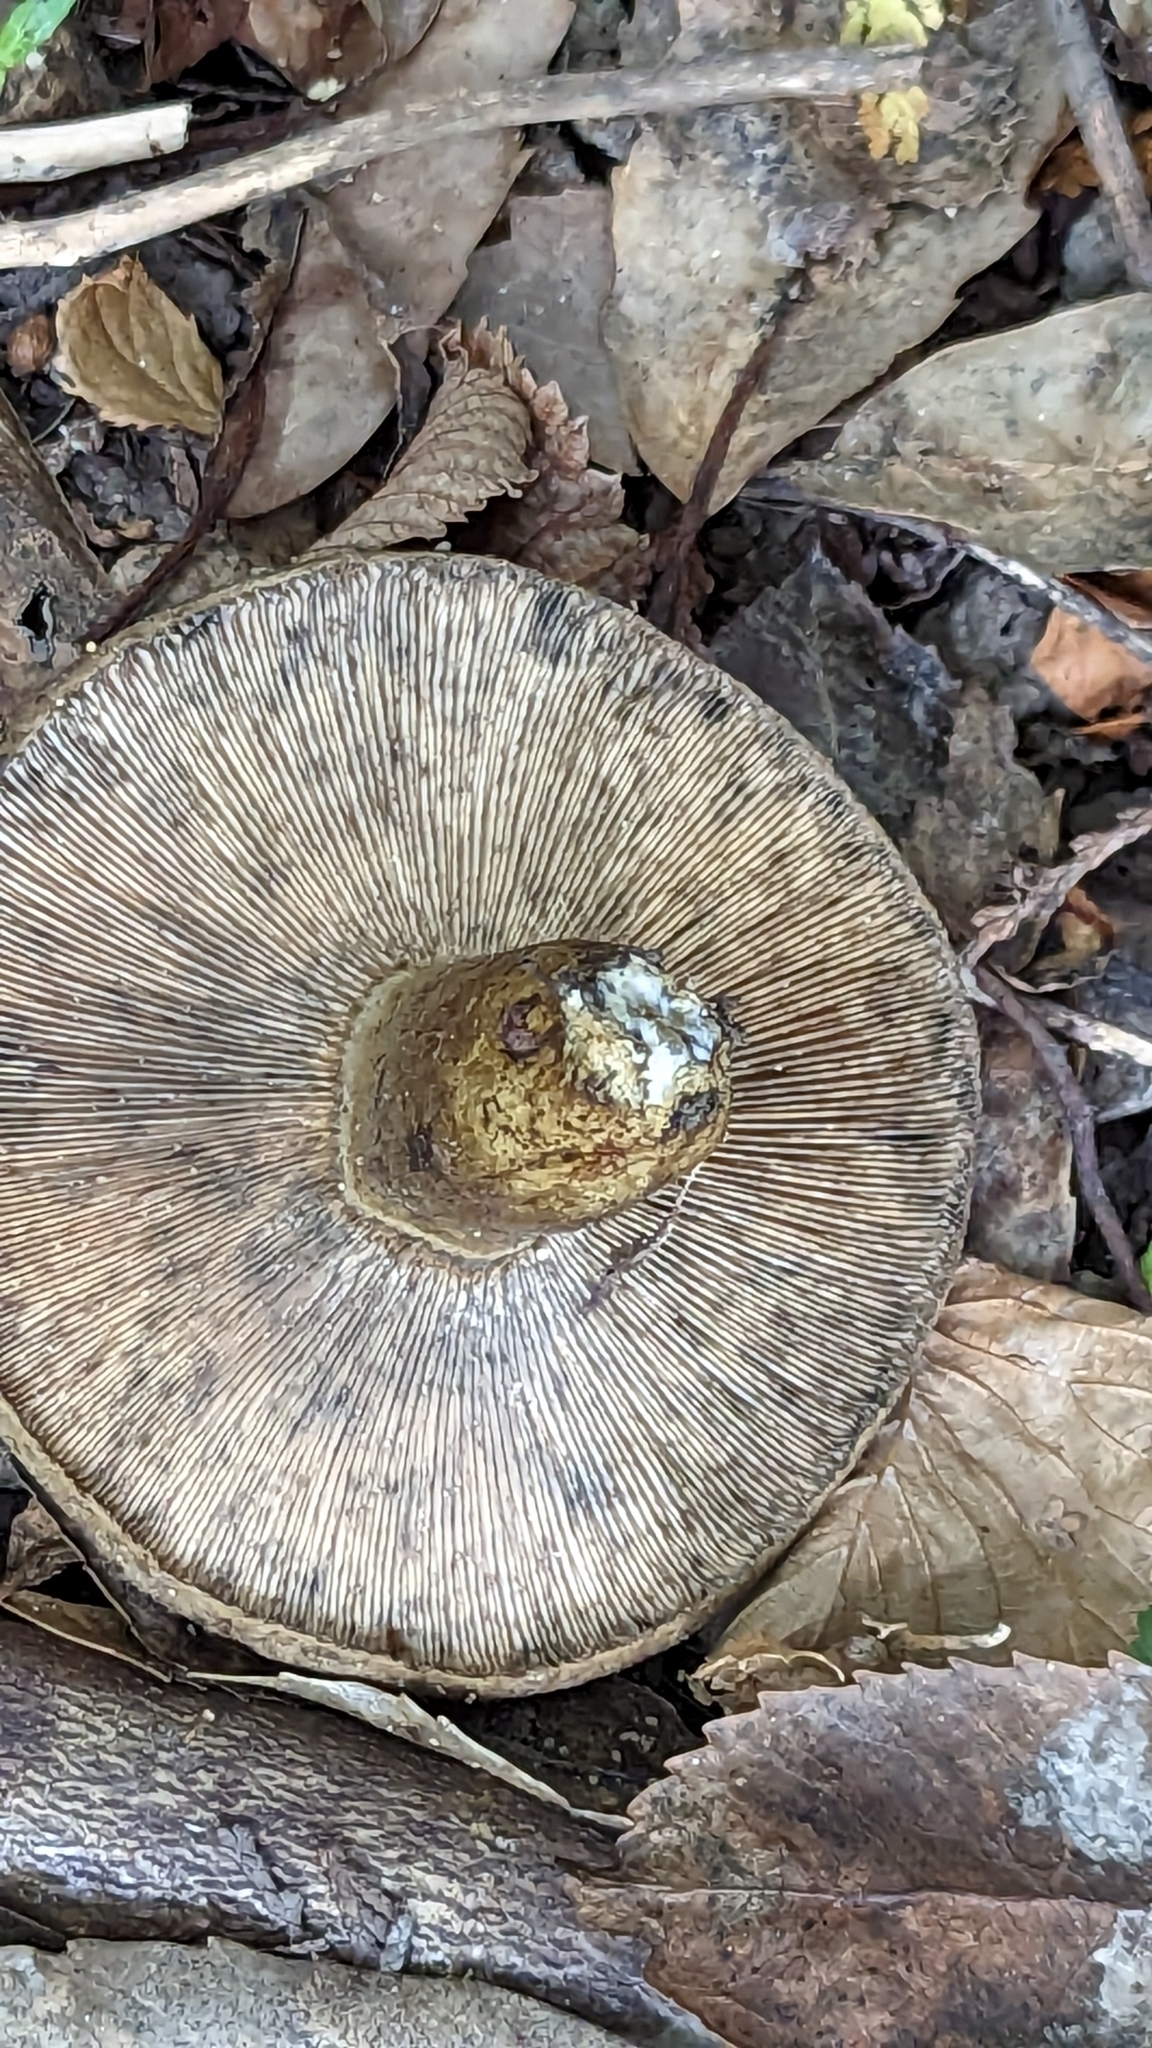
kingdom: Fungi
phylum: Basidiomycota
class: Agaricomycetes
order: Russulales
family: Russulaceae
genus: Lactarius
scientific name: Lactarius turpis
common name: Ugly milk-cap
